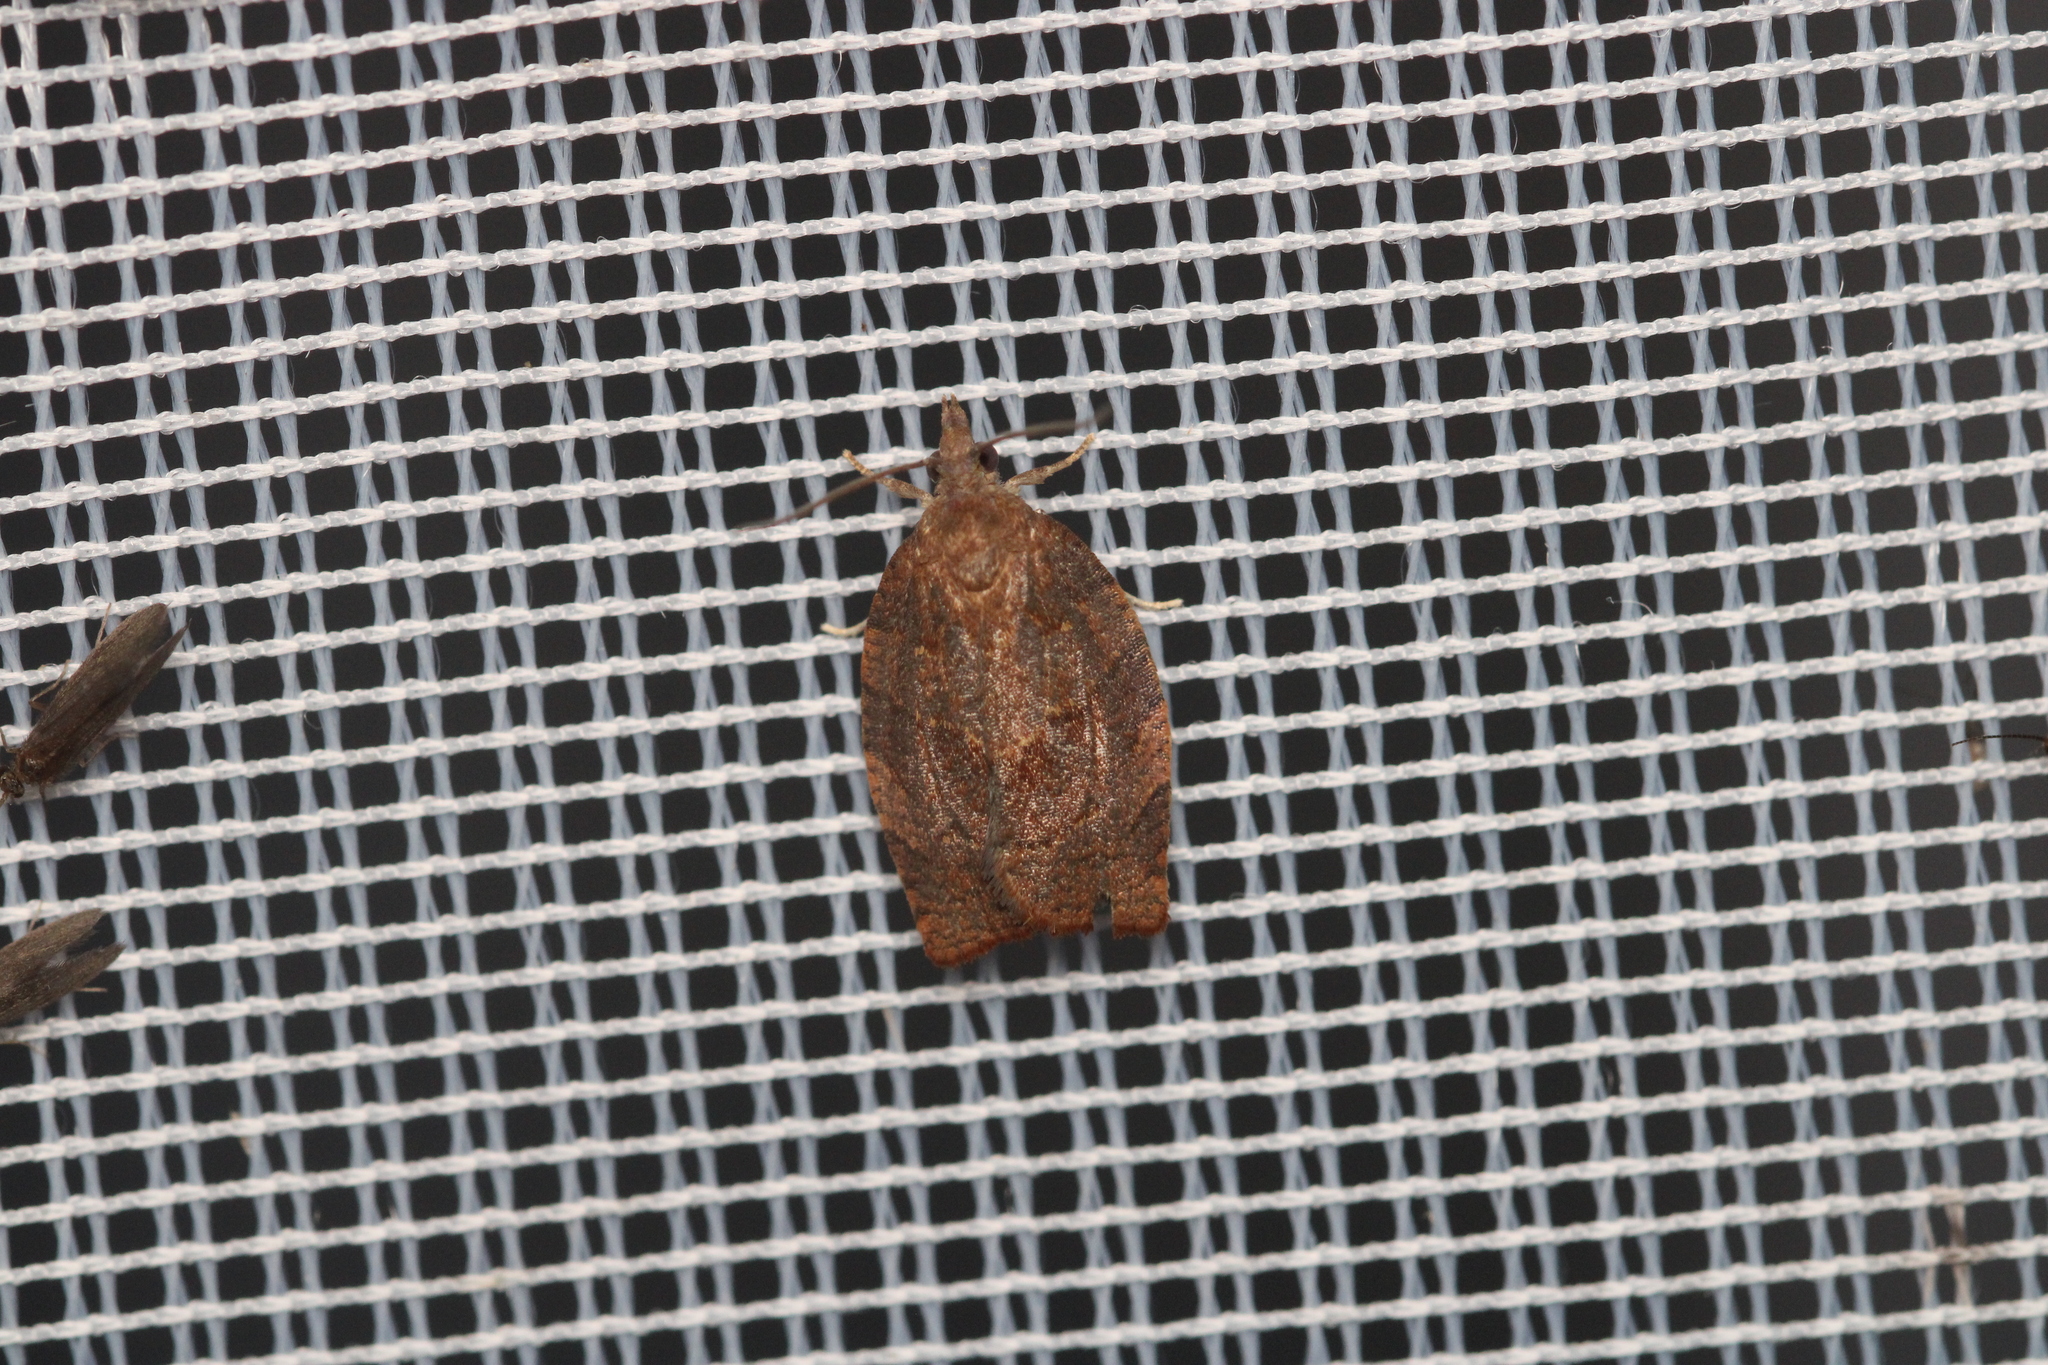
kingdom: Animalia
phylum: Arthropoda
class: Insecta
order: Lepidoptera
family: Tortricidae
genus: Pandemis
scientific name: Pandemis heparana
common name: Dark fruit-tree tortrix
